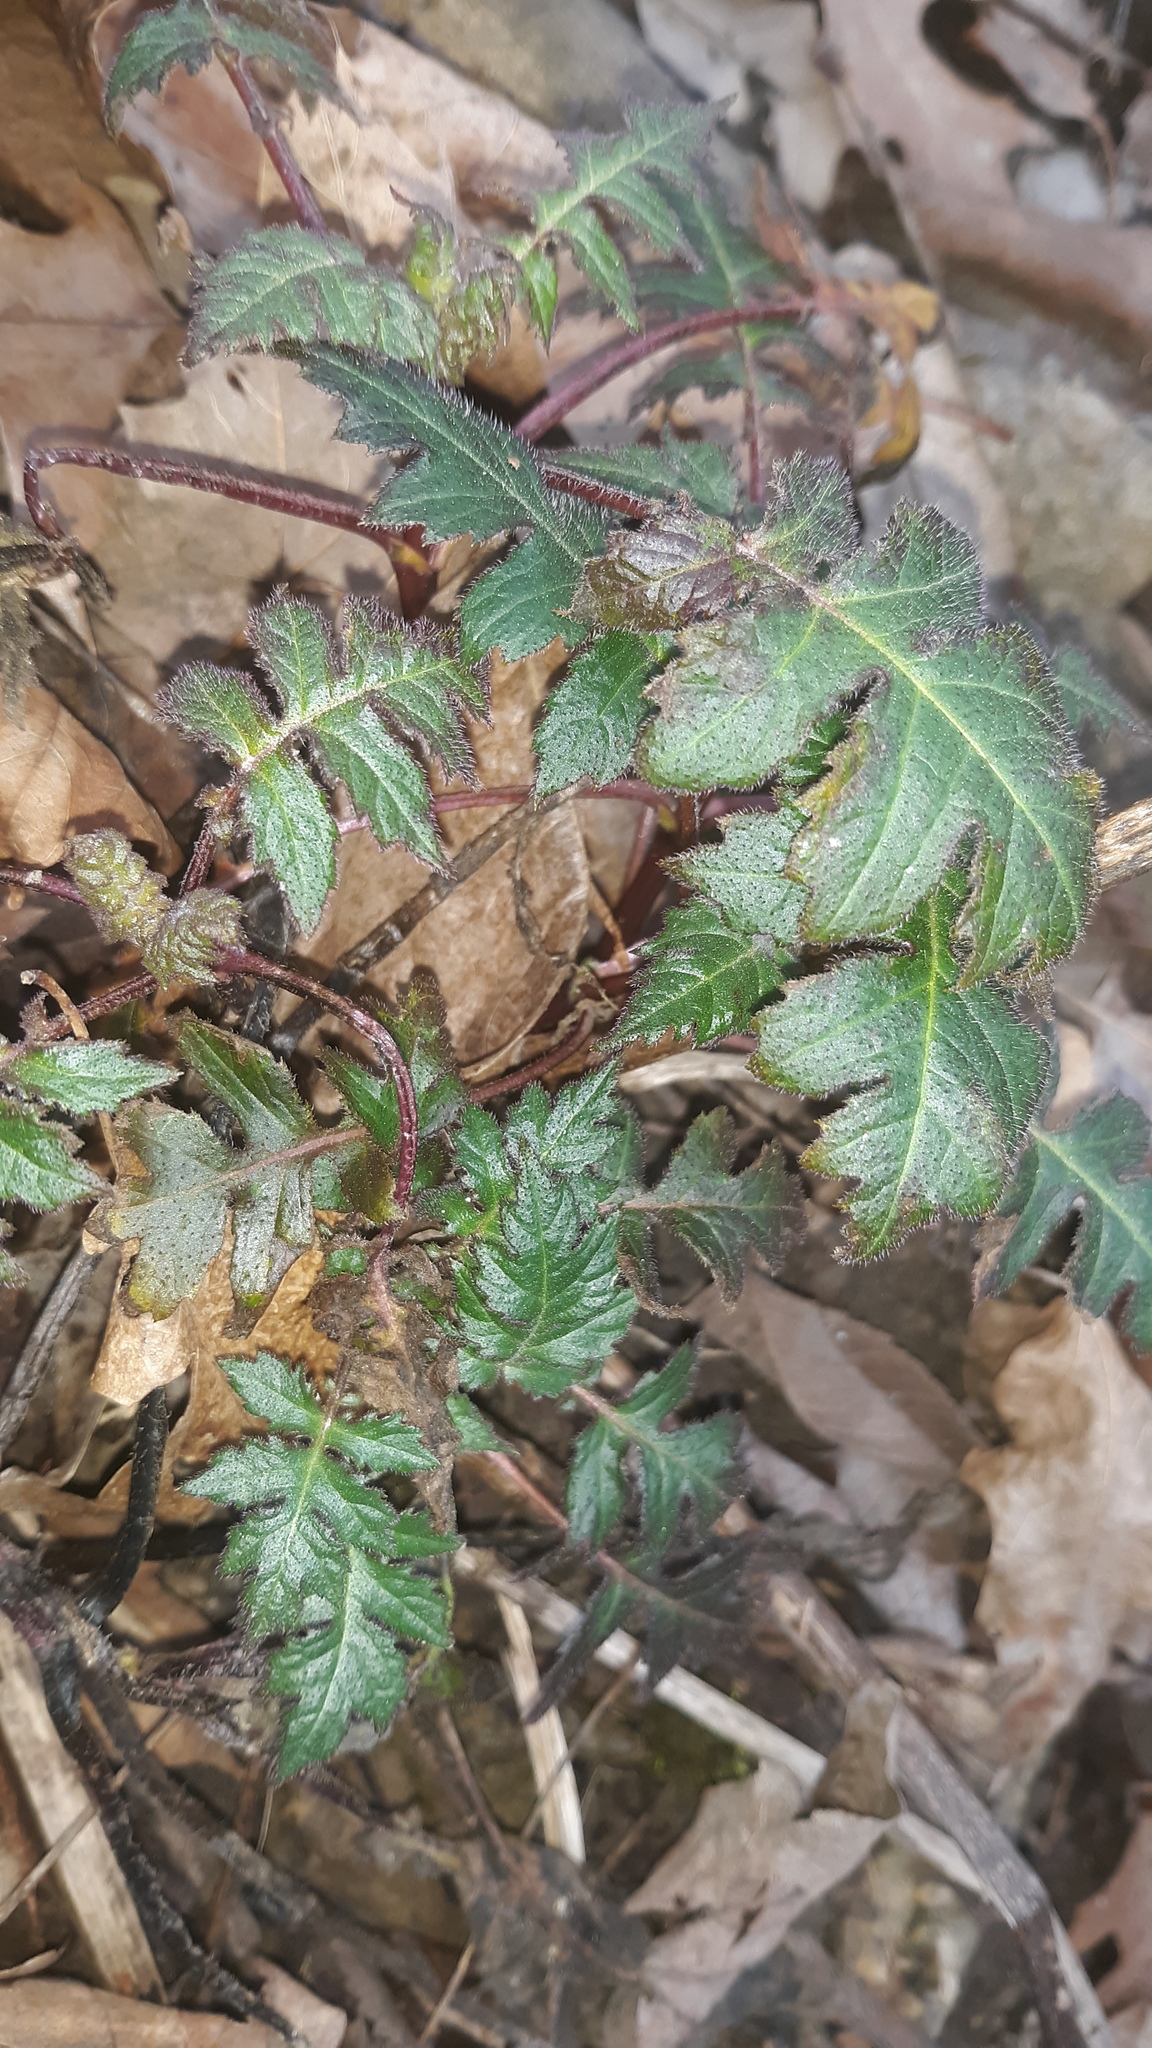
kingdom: Plantae
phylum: Tracheophyta
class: Magnoliopsida
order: Asterales
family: Asteraceae
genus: Polymnia
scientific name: Polymnia canadensis
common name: Pale-flowered leafcup
